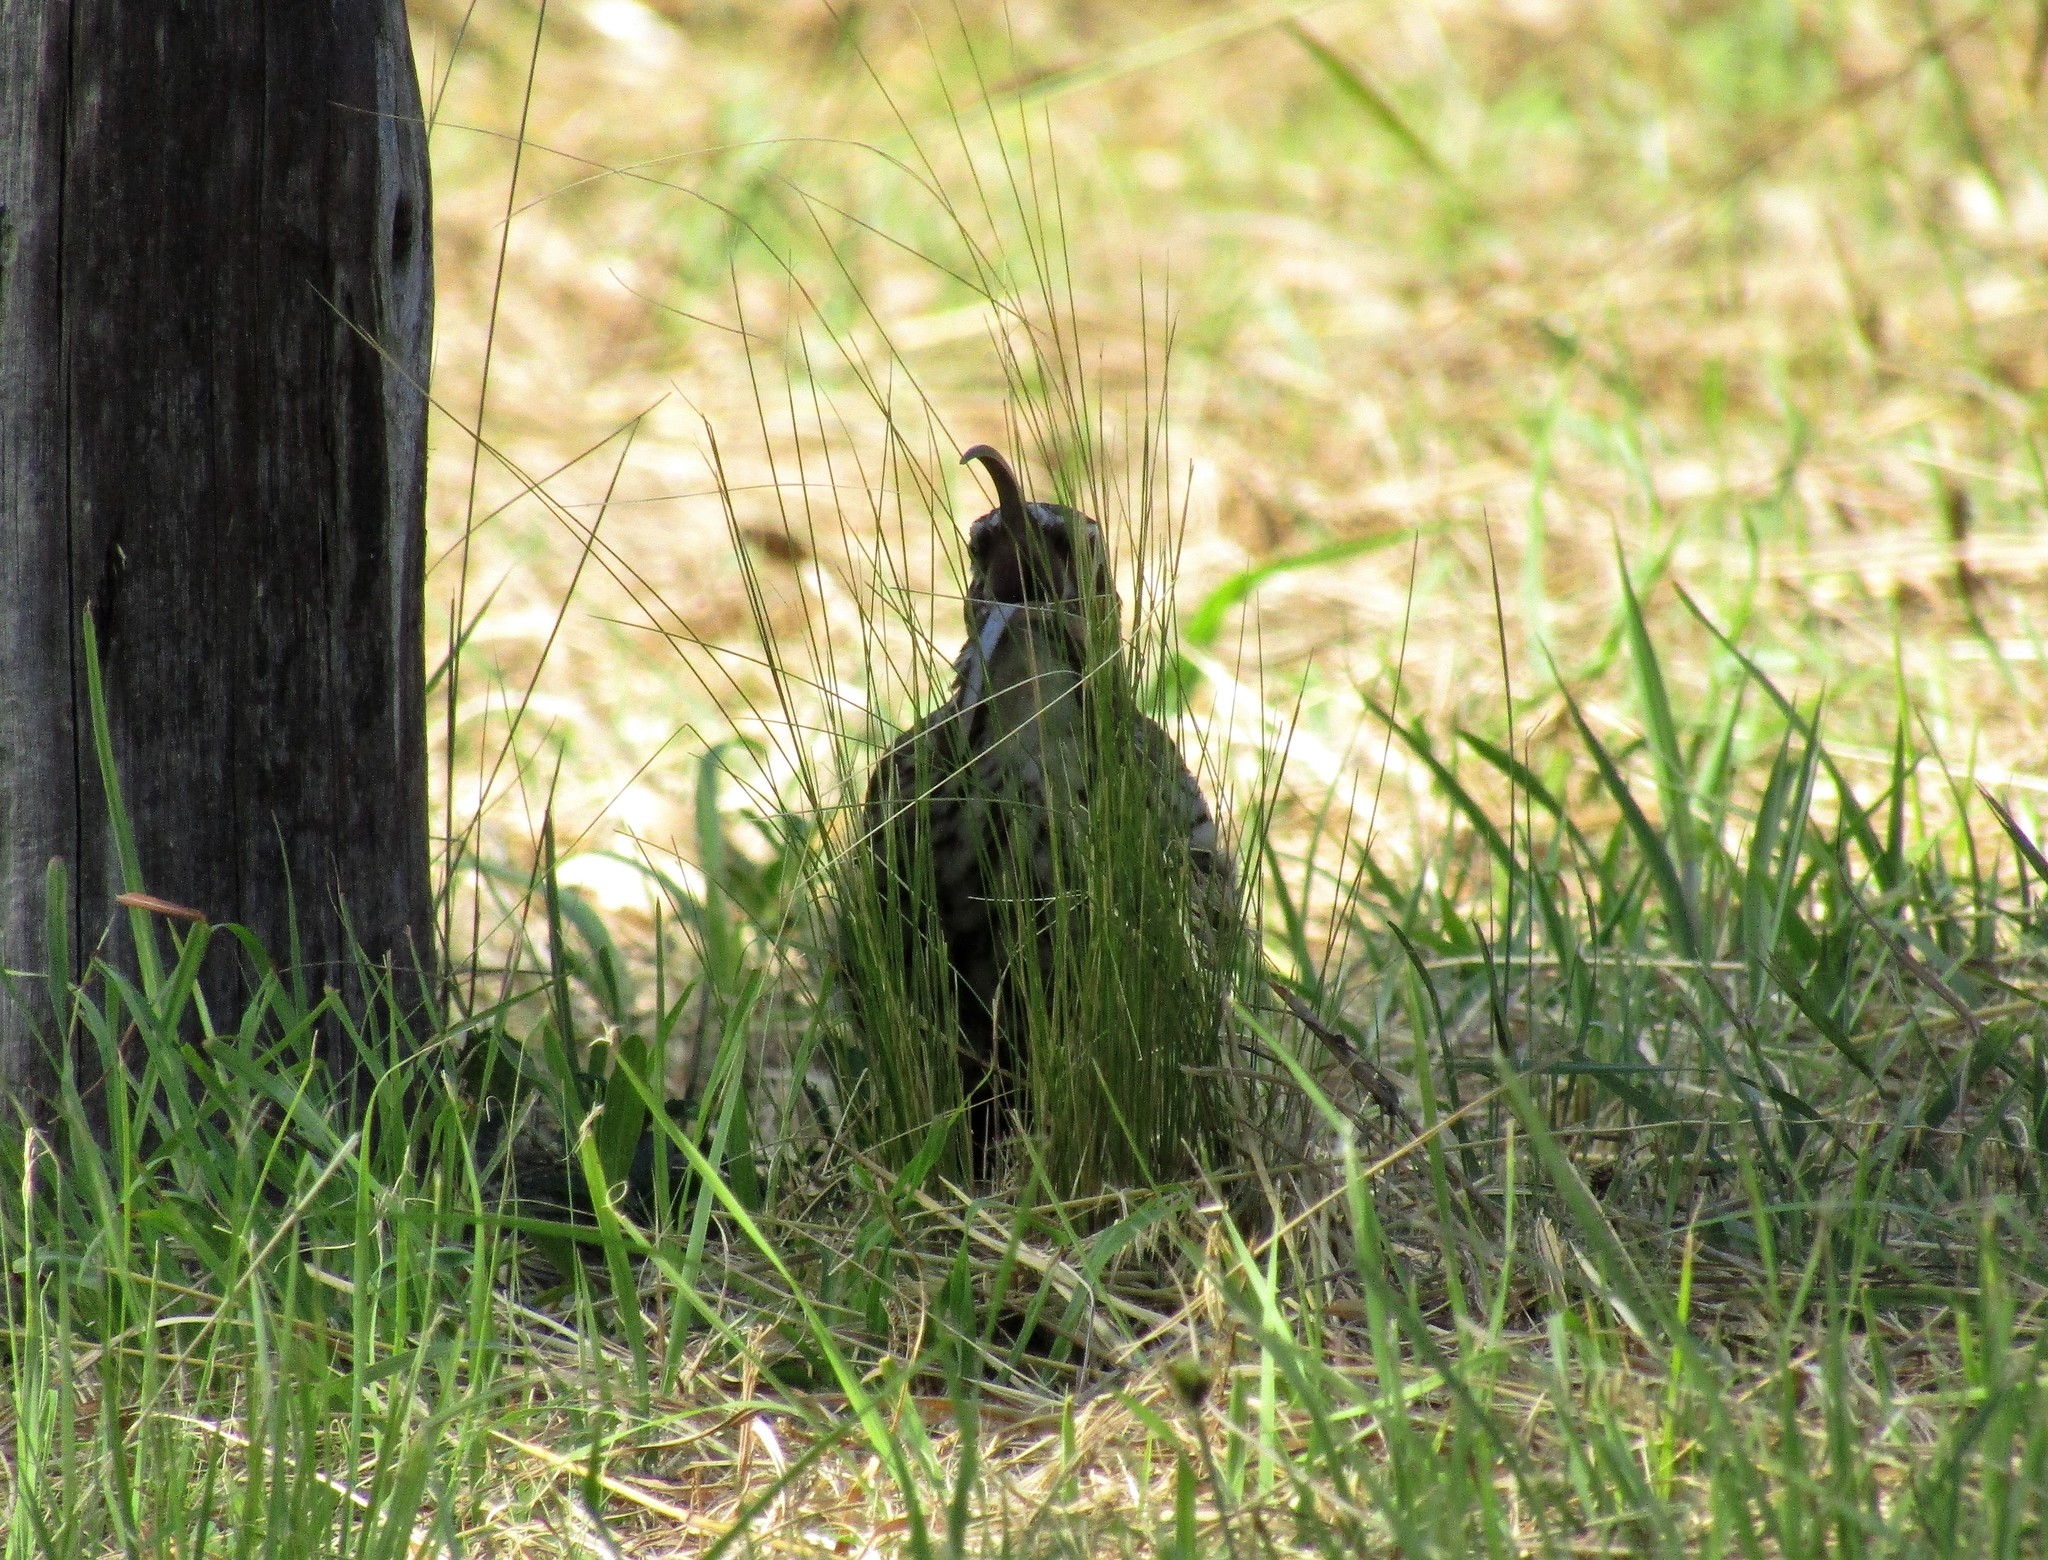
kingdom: Animalia
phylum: Chordata
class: Aves
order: Passeriformes
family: Furnariidae
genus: Drymornis
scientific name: Drymornis bridgesii
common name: Scimitar-billed woodcreeper
